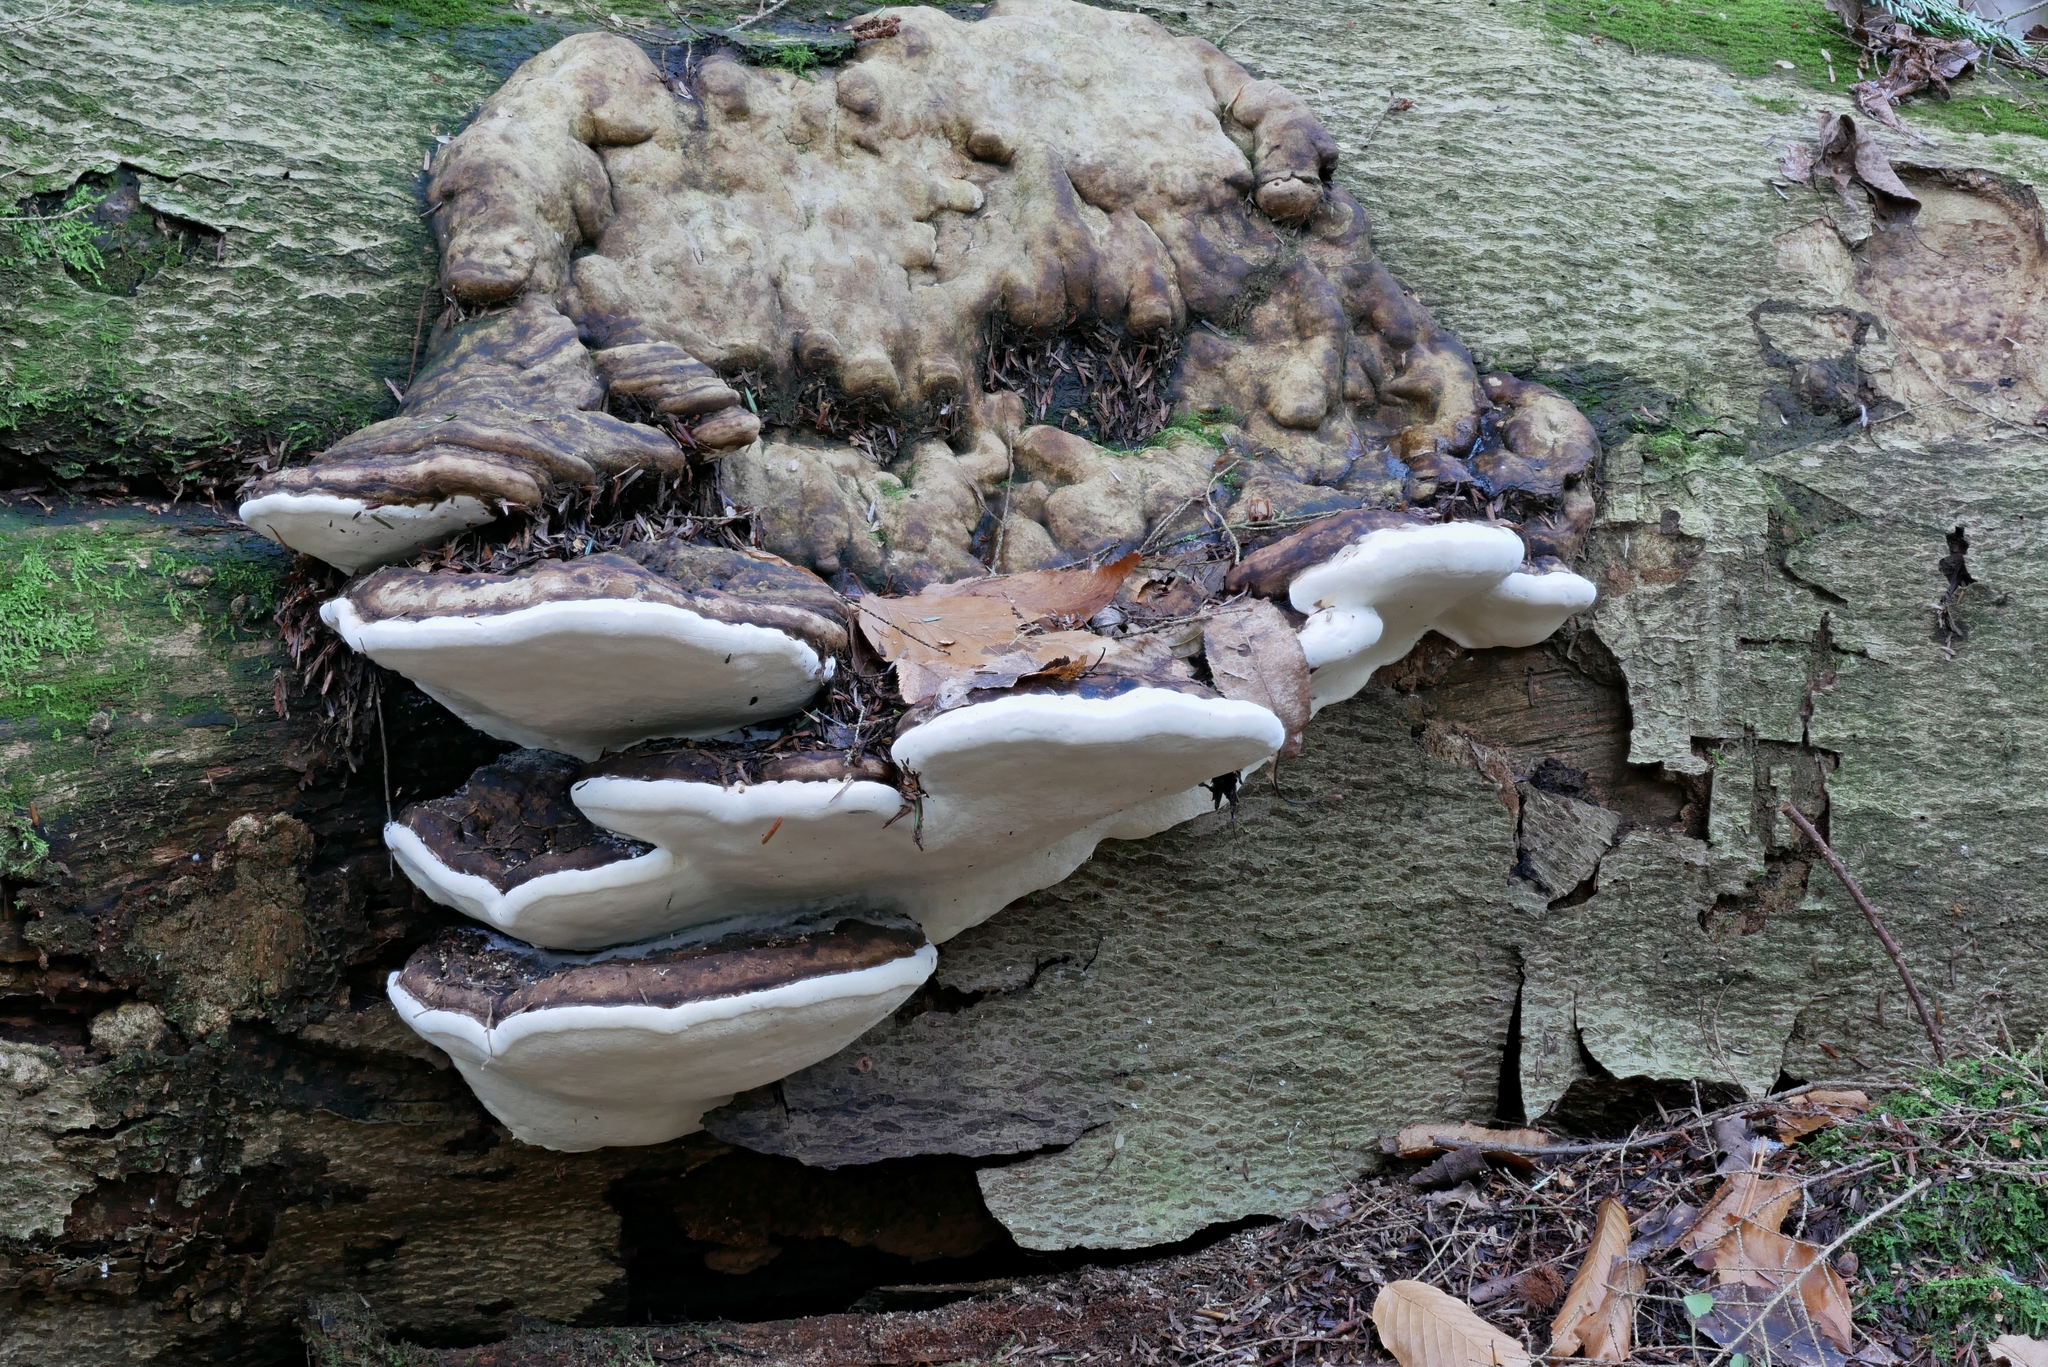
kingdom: Fungi
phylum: Basidiomycota
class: Agaricomycetes
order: Polyporales
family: Fomitopsidaceae
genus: Fomitopsis
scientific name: Fomitopsis ochracea
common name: American brown fomitopsis
